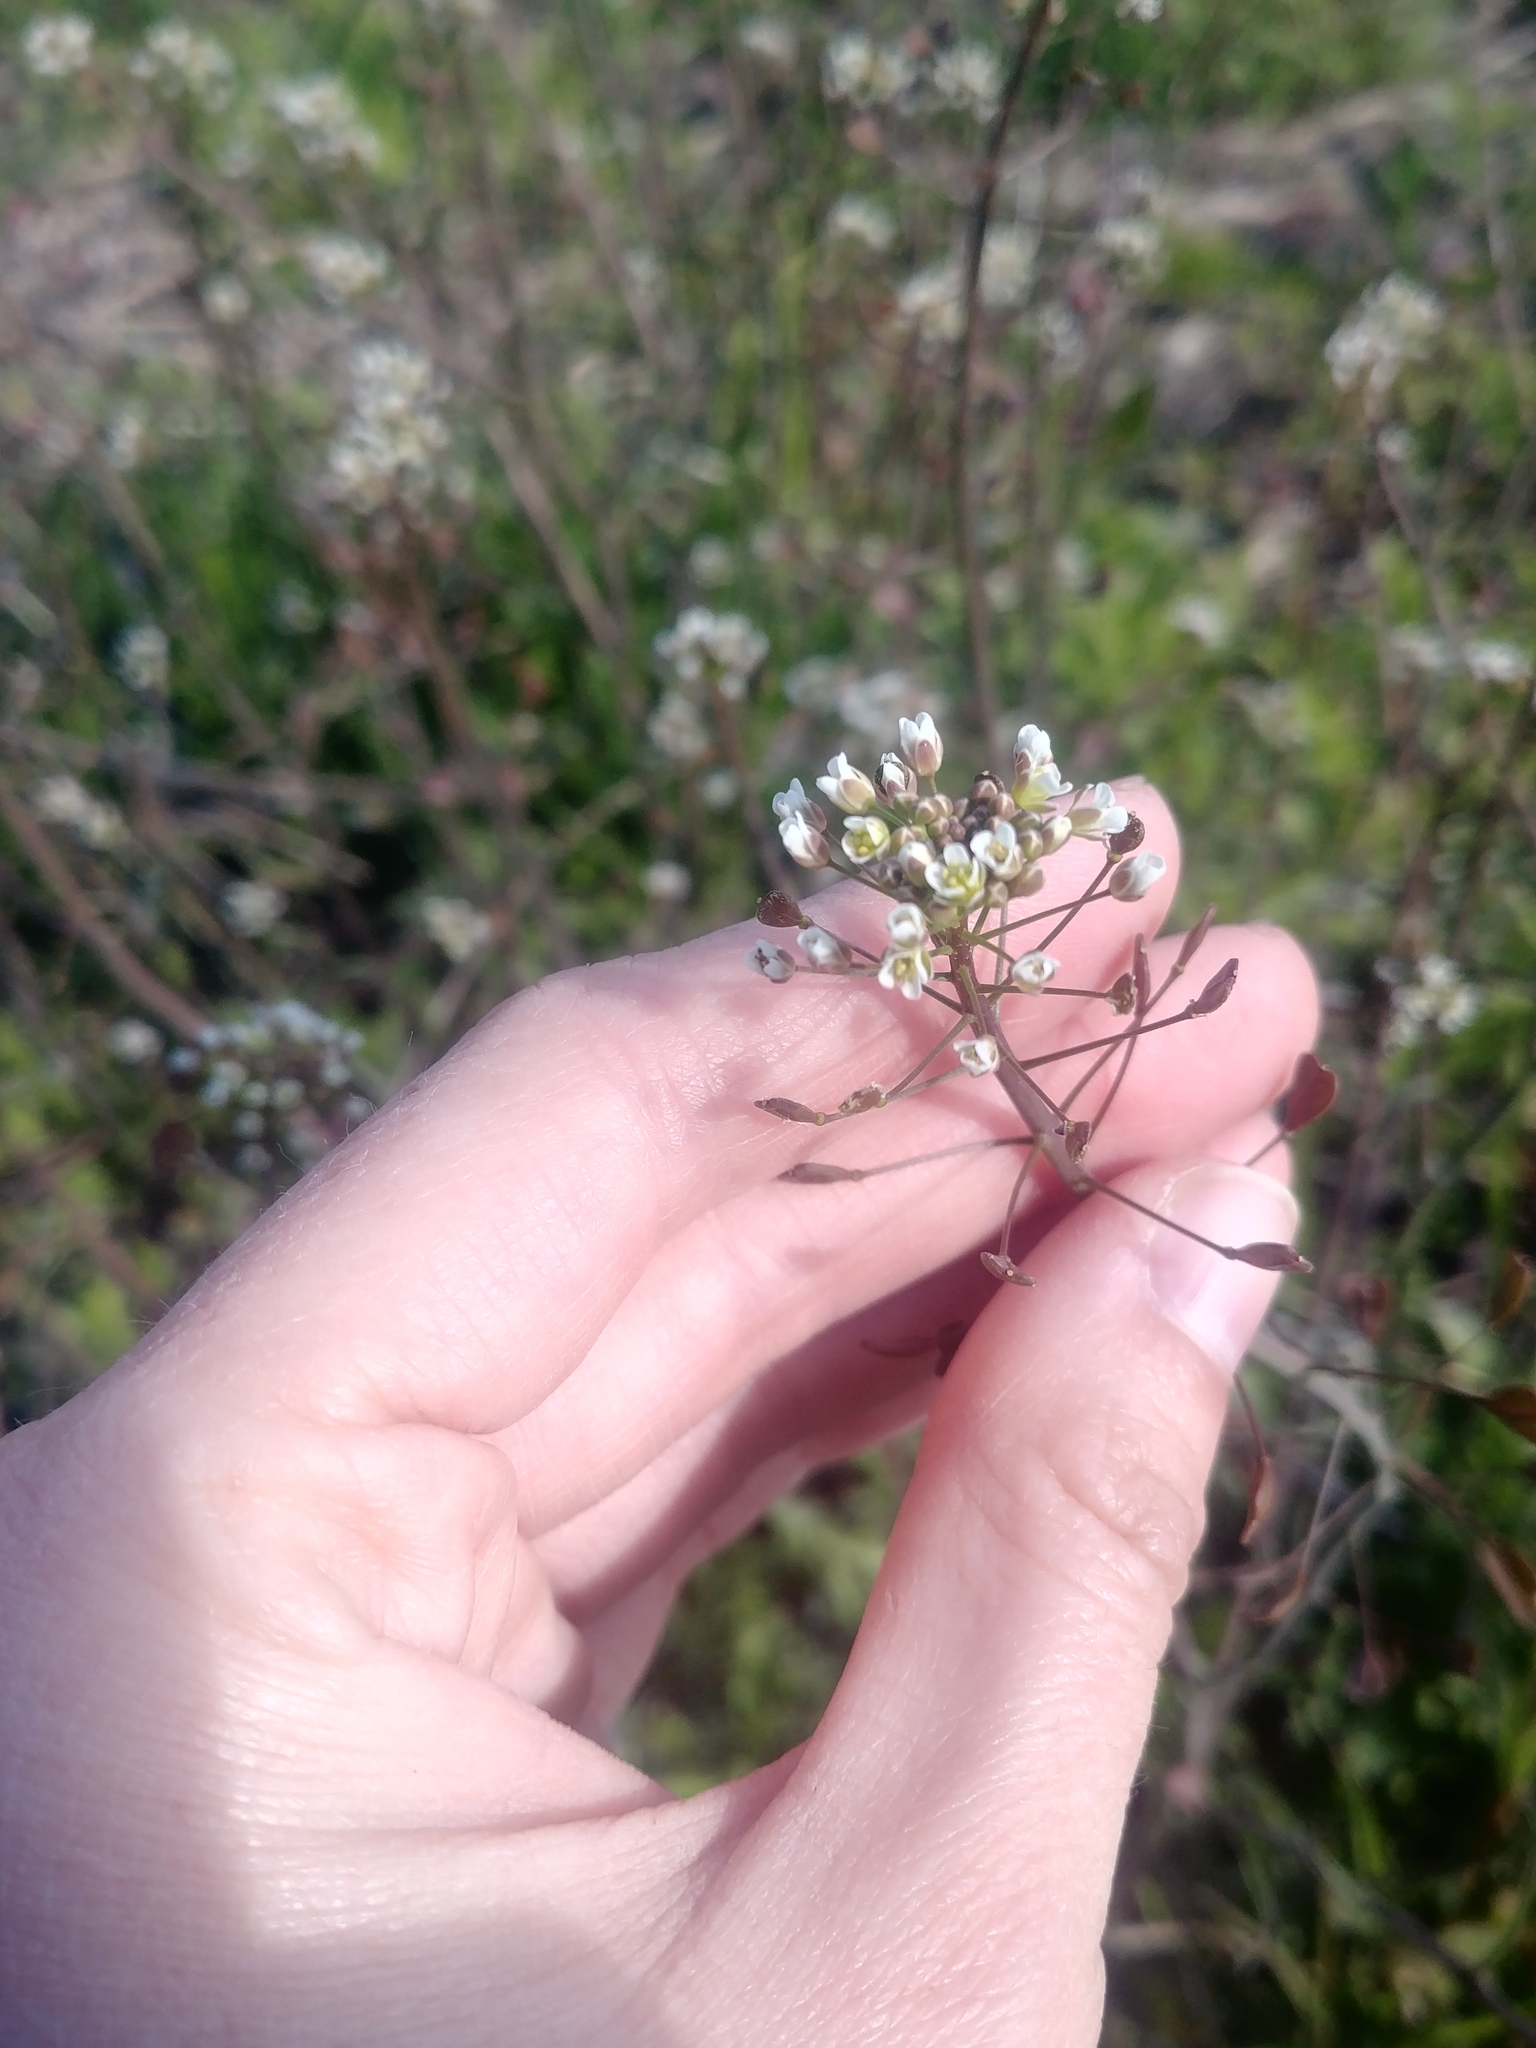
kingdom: Plantae
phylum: Tracheophyta
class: Magnoliopsida
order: Brassicales
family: Brassicaceae
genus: Capsella
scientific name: Capsella bursa-pastoris
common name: Shepherd's purse
